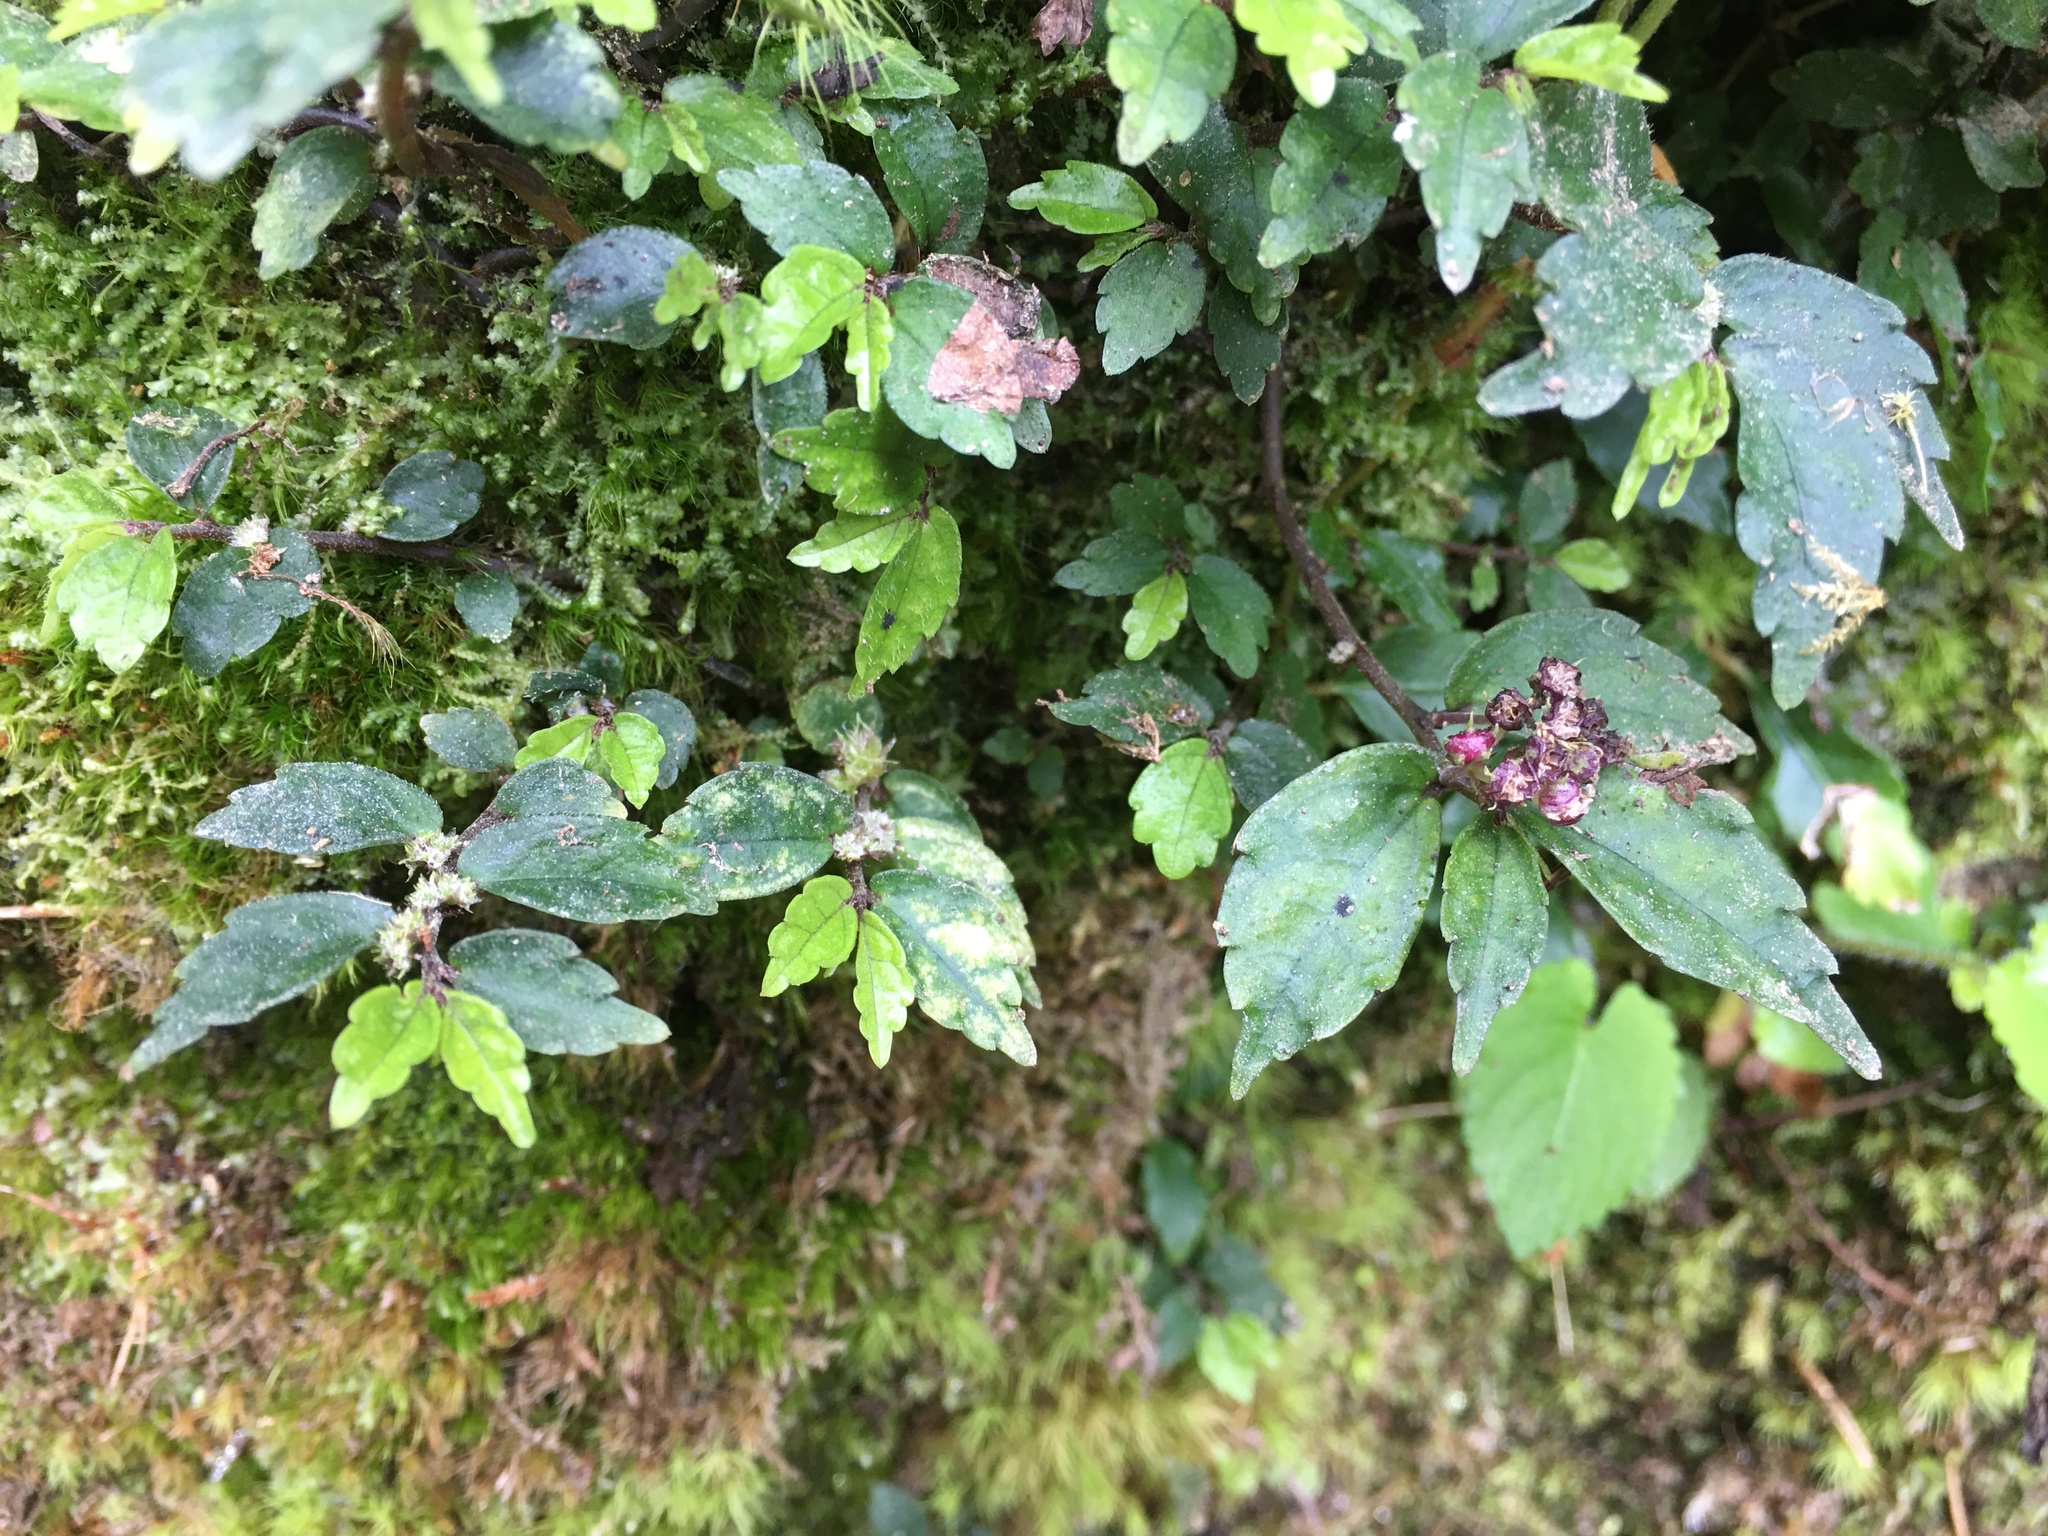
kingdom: Plantae
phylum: Tracheophyta
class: Magnoliopsida
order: Rosales
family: Urticaceae
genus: Elatostema
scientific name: Elatostema radicans
